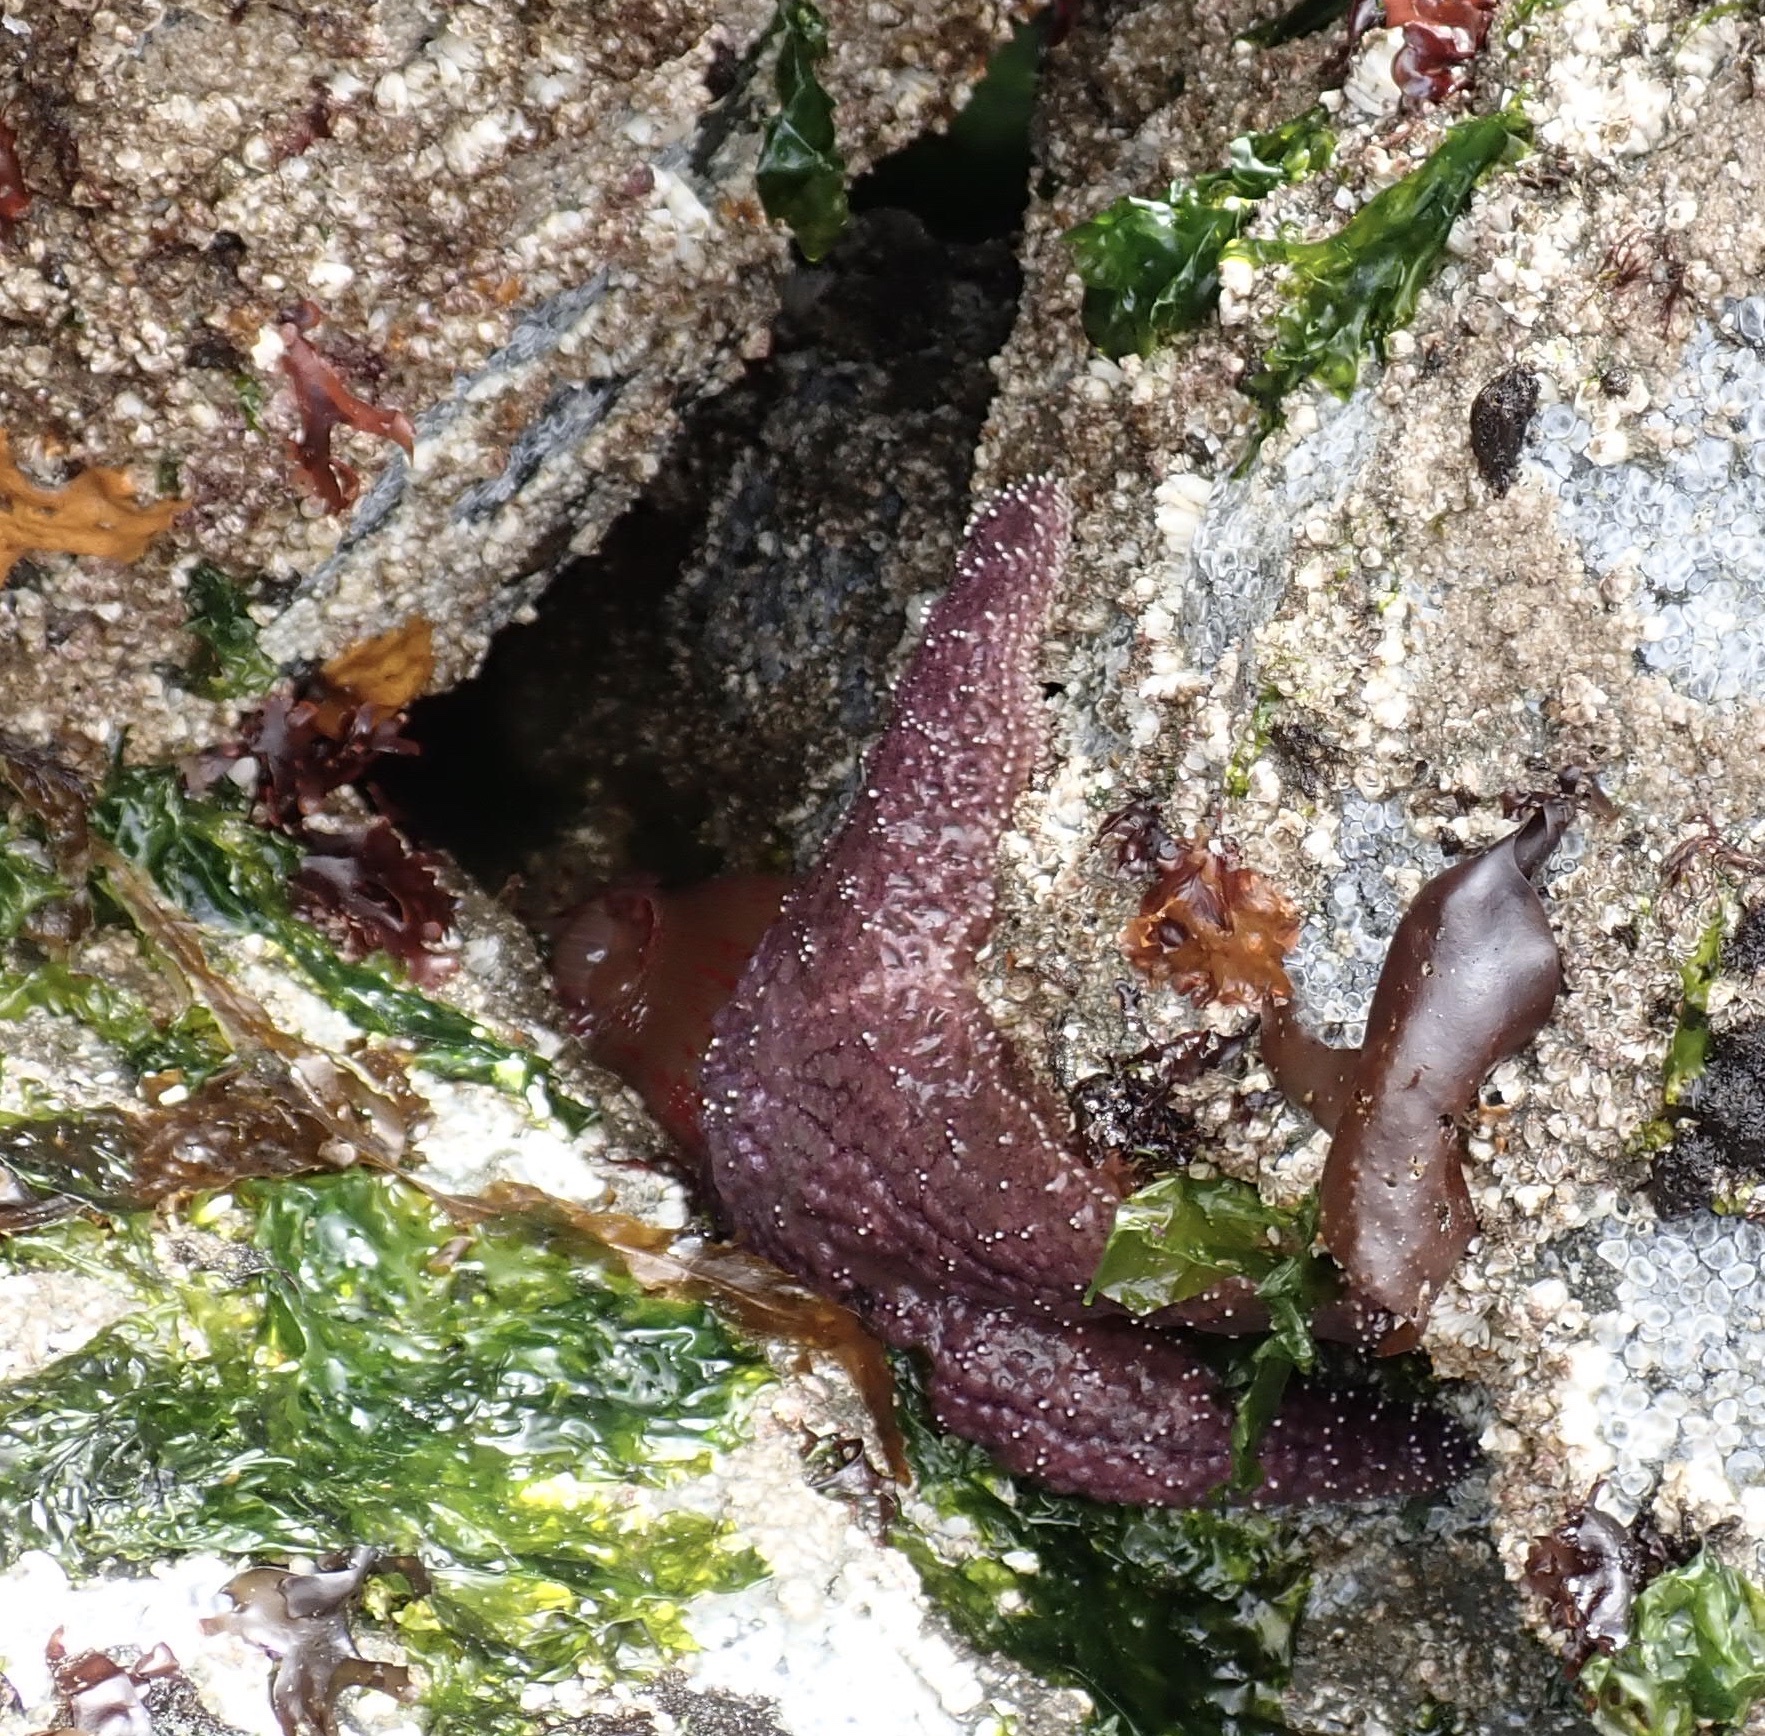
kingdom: Animalia
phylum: Echinodermata
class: Asteroidea
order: Forcipulatida
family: Asteriidae
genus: Pisaster
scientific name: Pisaster ochraceus
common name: Ochre stars
